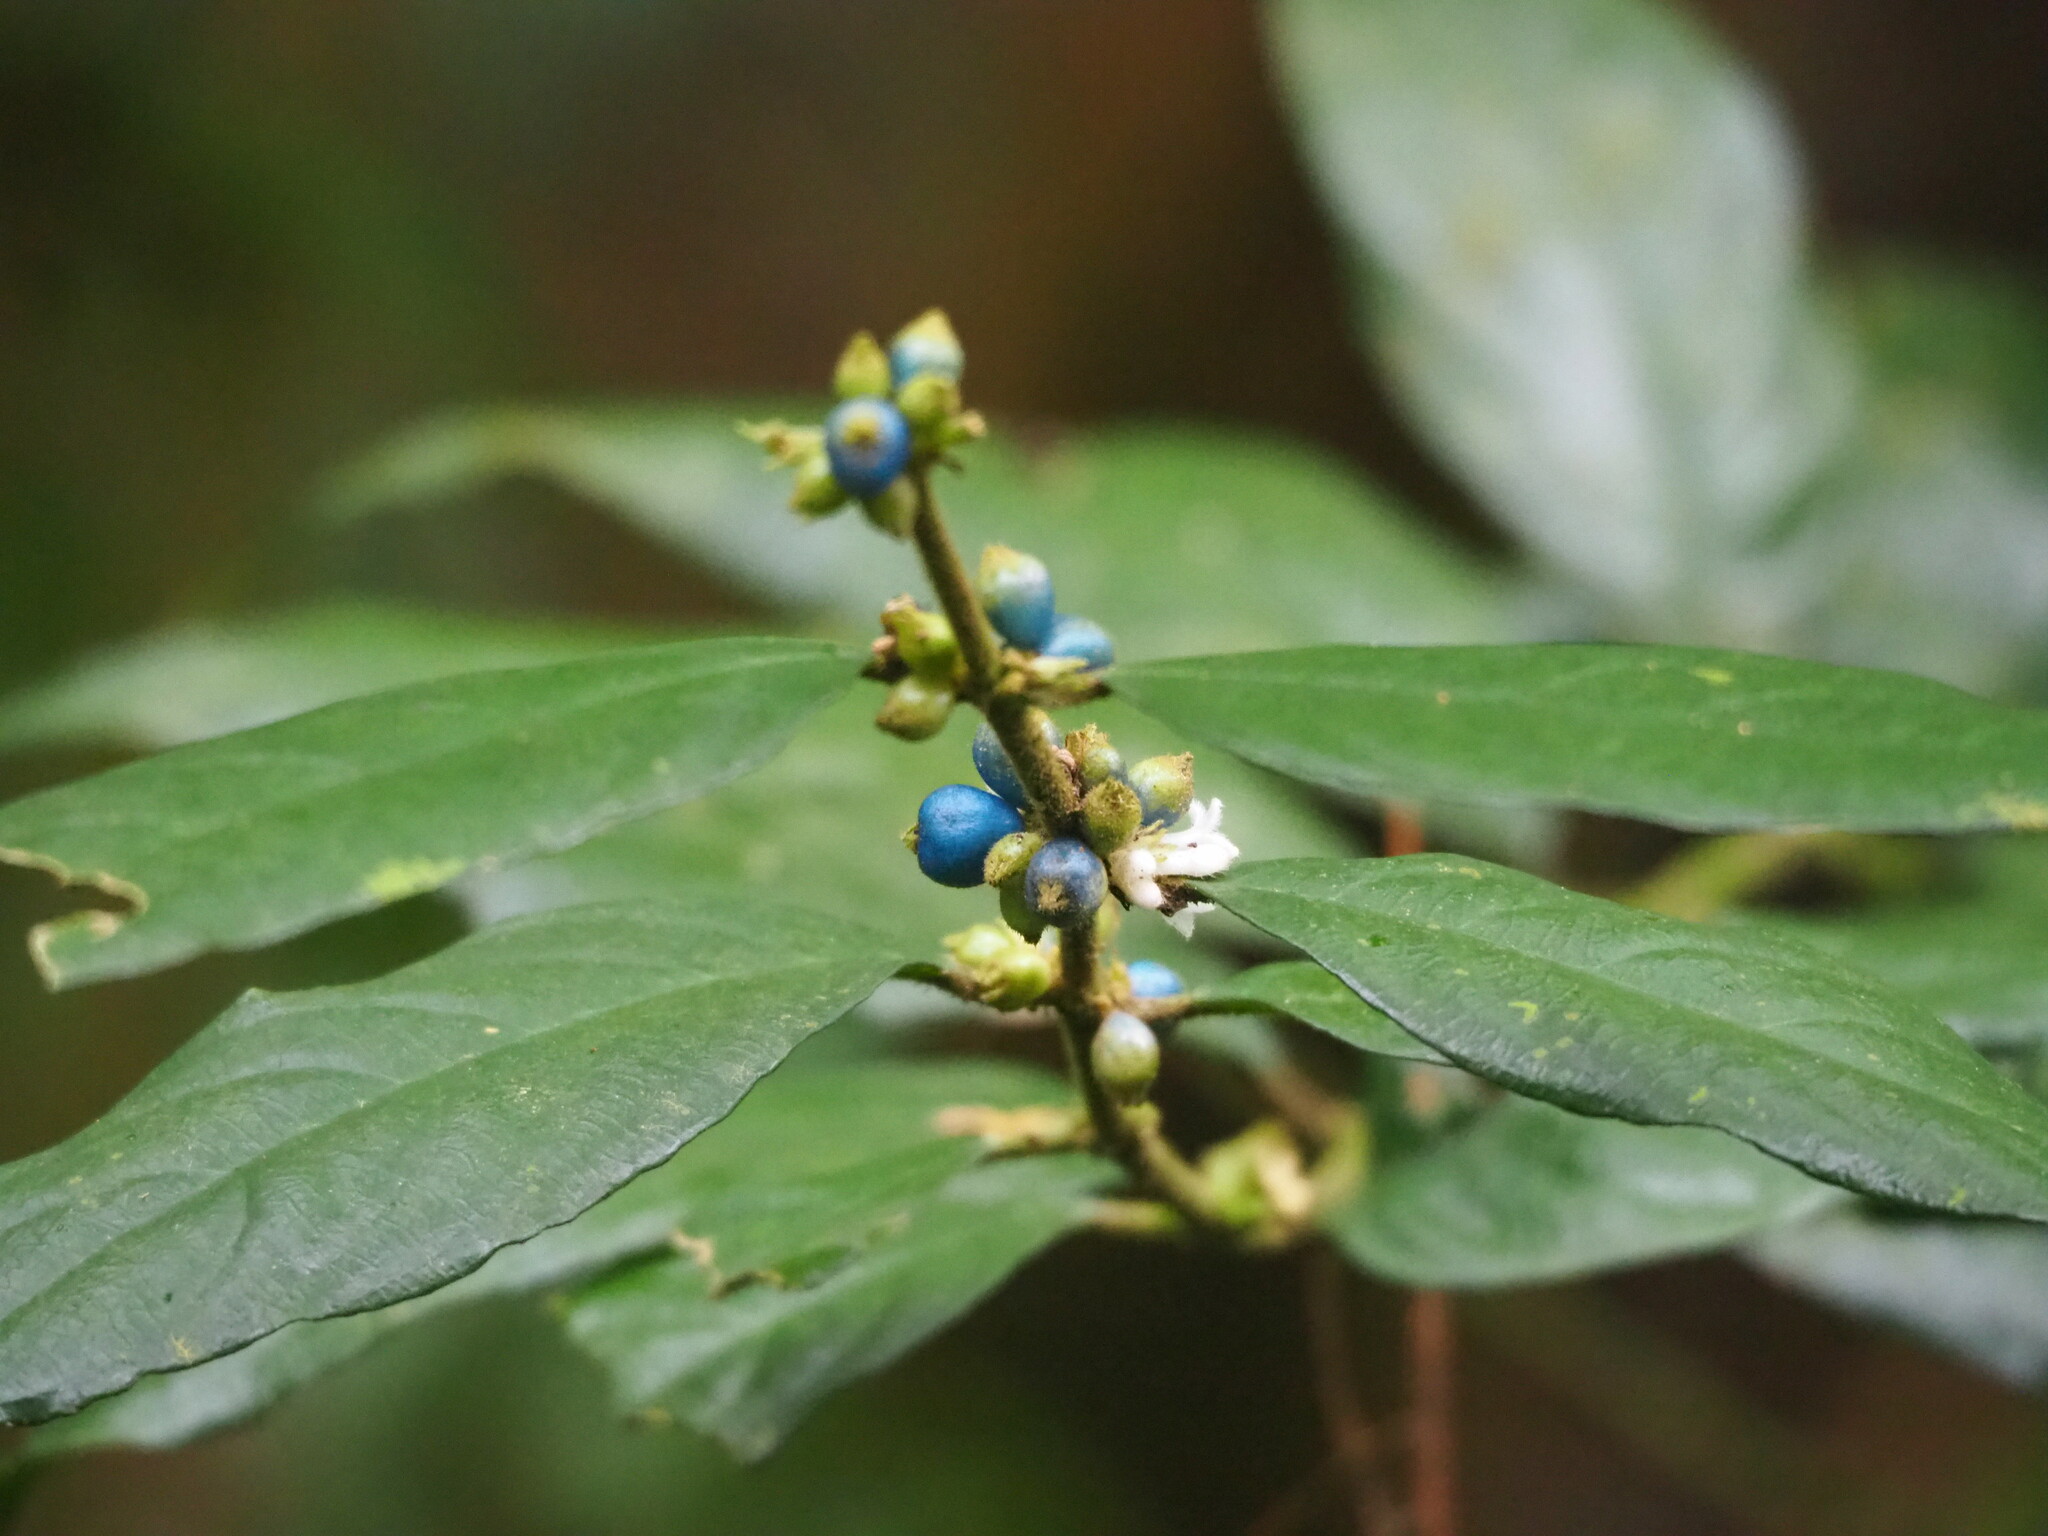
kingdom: Plantae
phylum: Tracheophyta
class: Magnoliopsida
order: Gentianales
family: Rubiaceae
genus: Lasianthus
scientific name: Lasianthus formosensis
